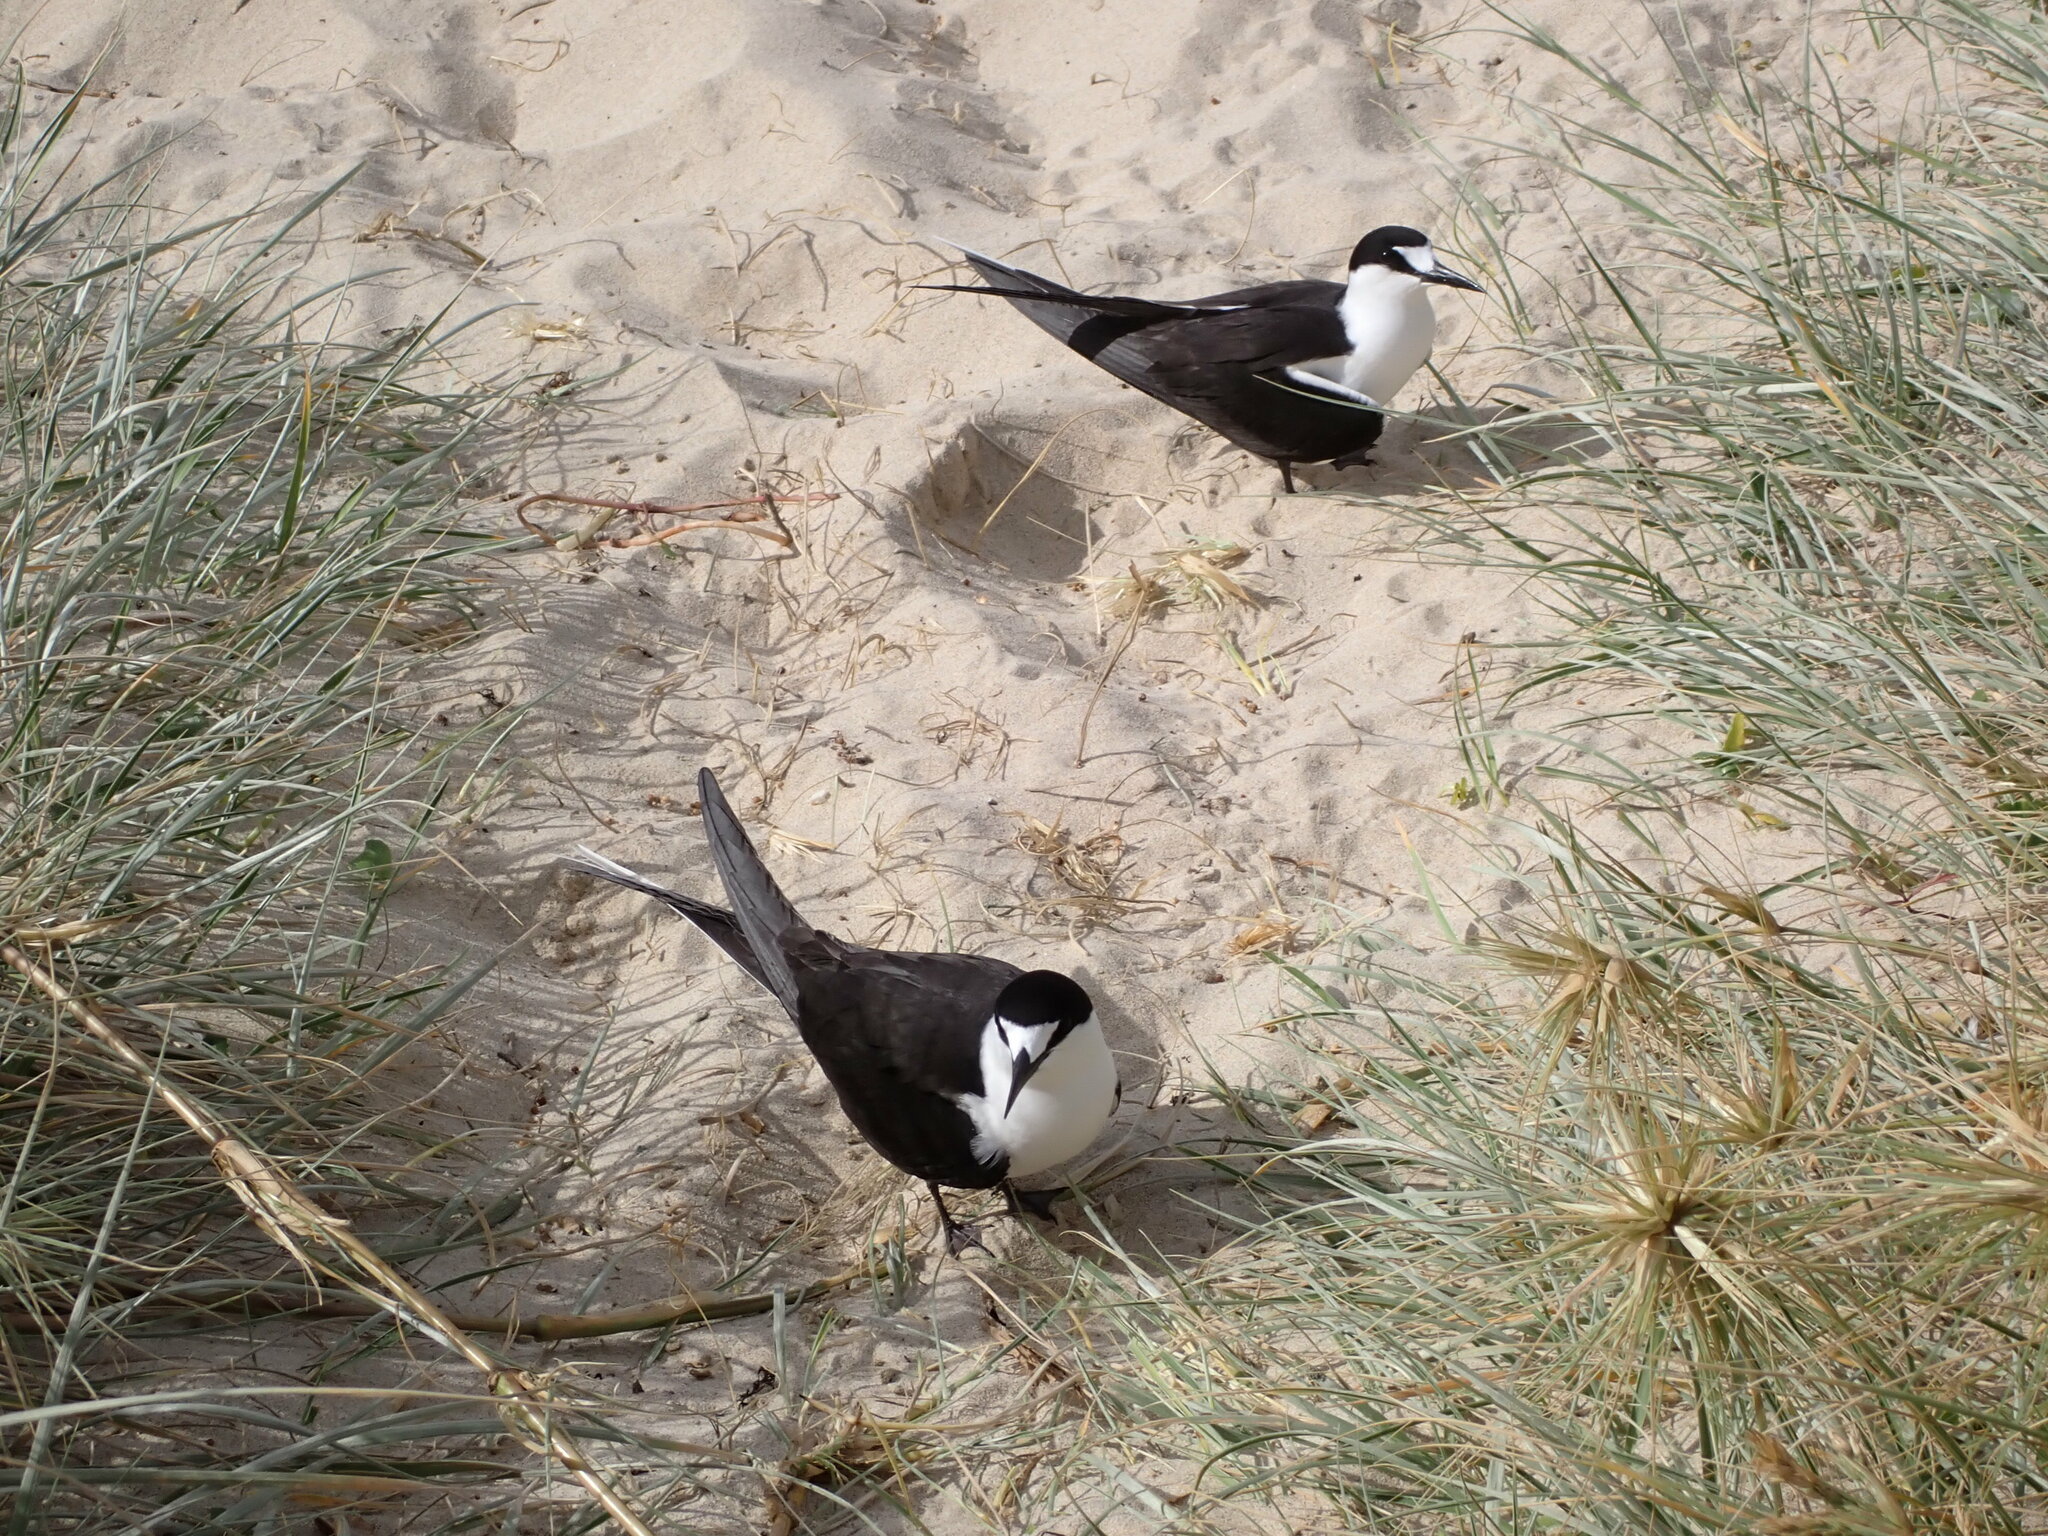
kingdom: Animalia
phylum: Chordata
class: Aves
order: Charadriiformes
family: Laridae
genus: Onychoprion
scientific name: Onychoprion fuscatus
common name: Sooty tern
